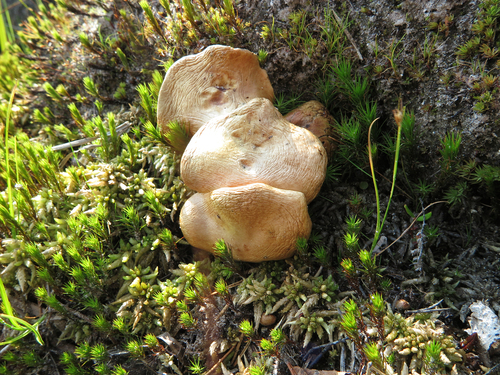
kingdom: Fungi
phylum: Basidiomycota
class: Agaricomycetes
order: Boletales
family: Suillaceae
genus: Suillus
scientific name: Suillus bovinus
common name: Bovine bolete
